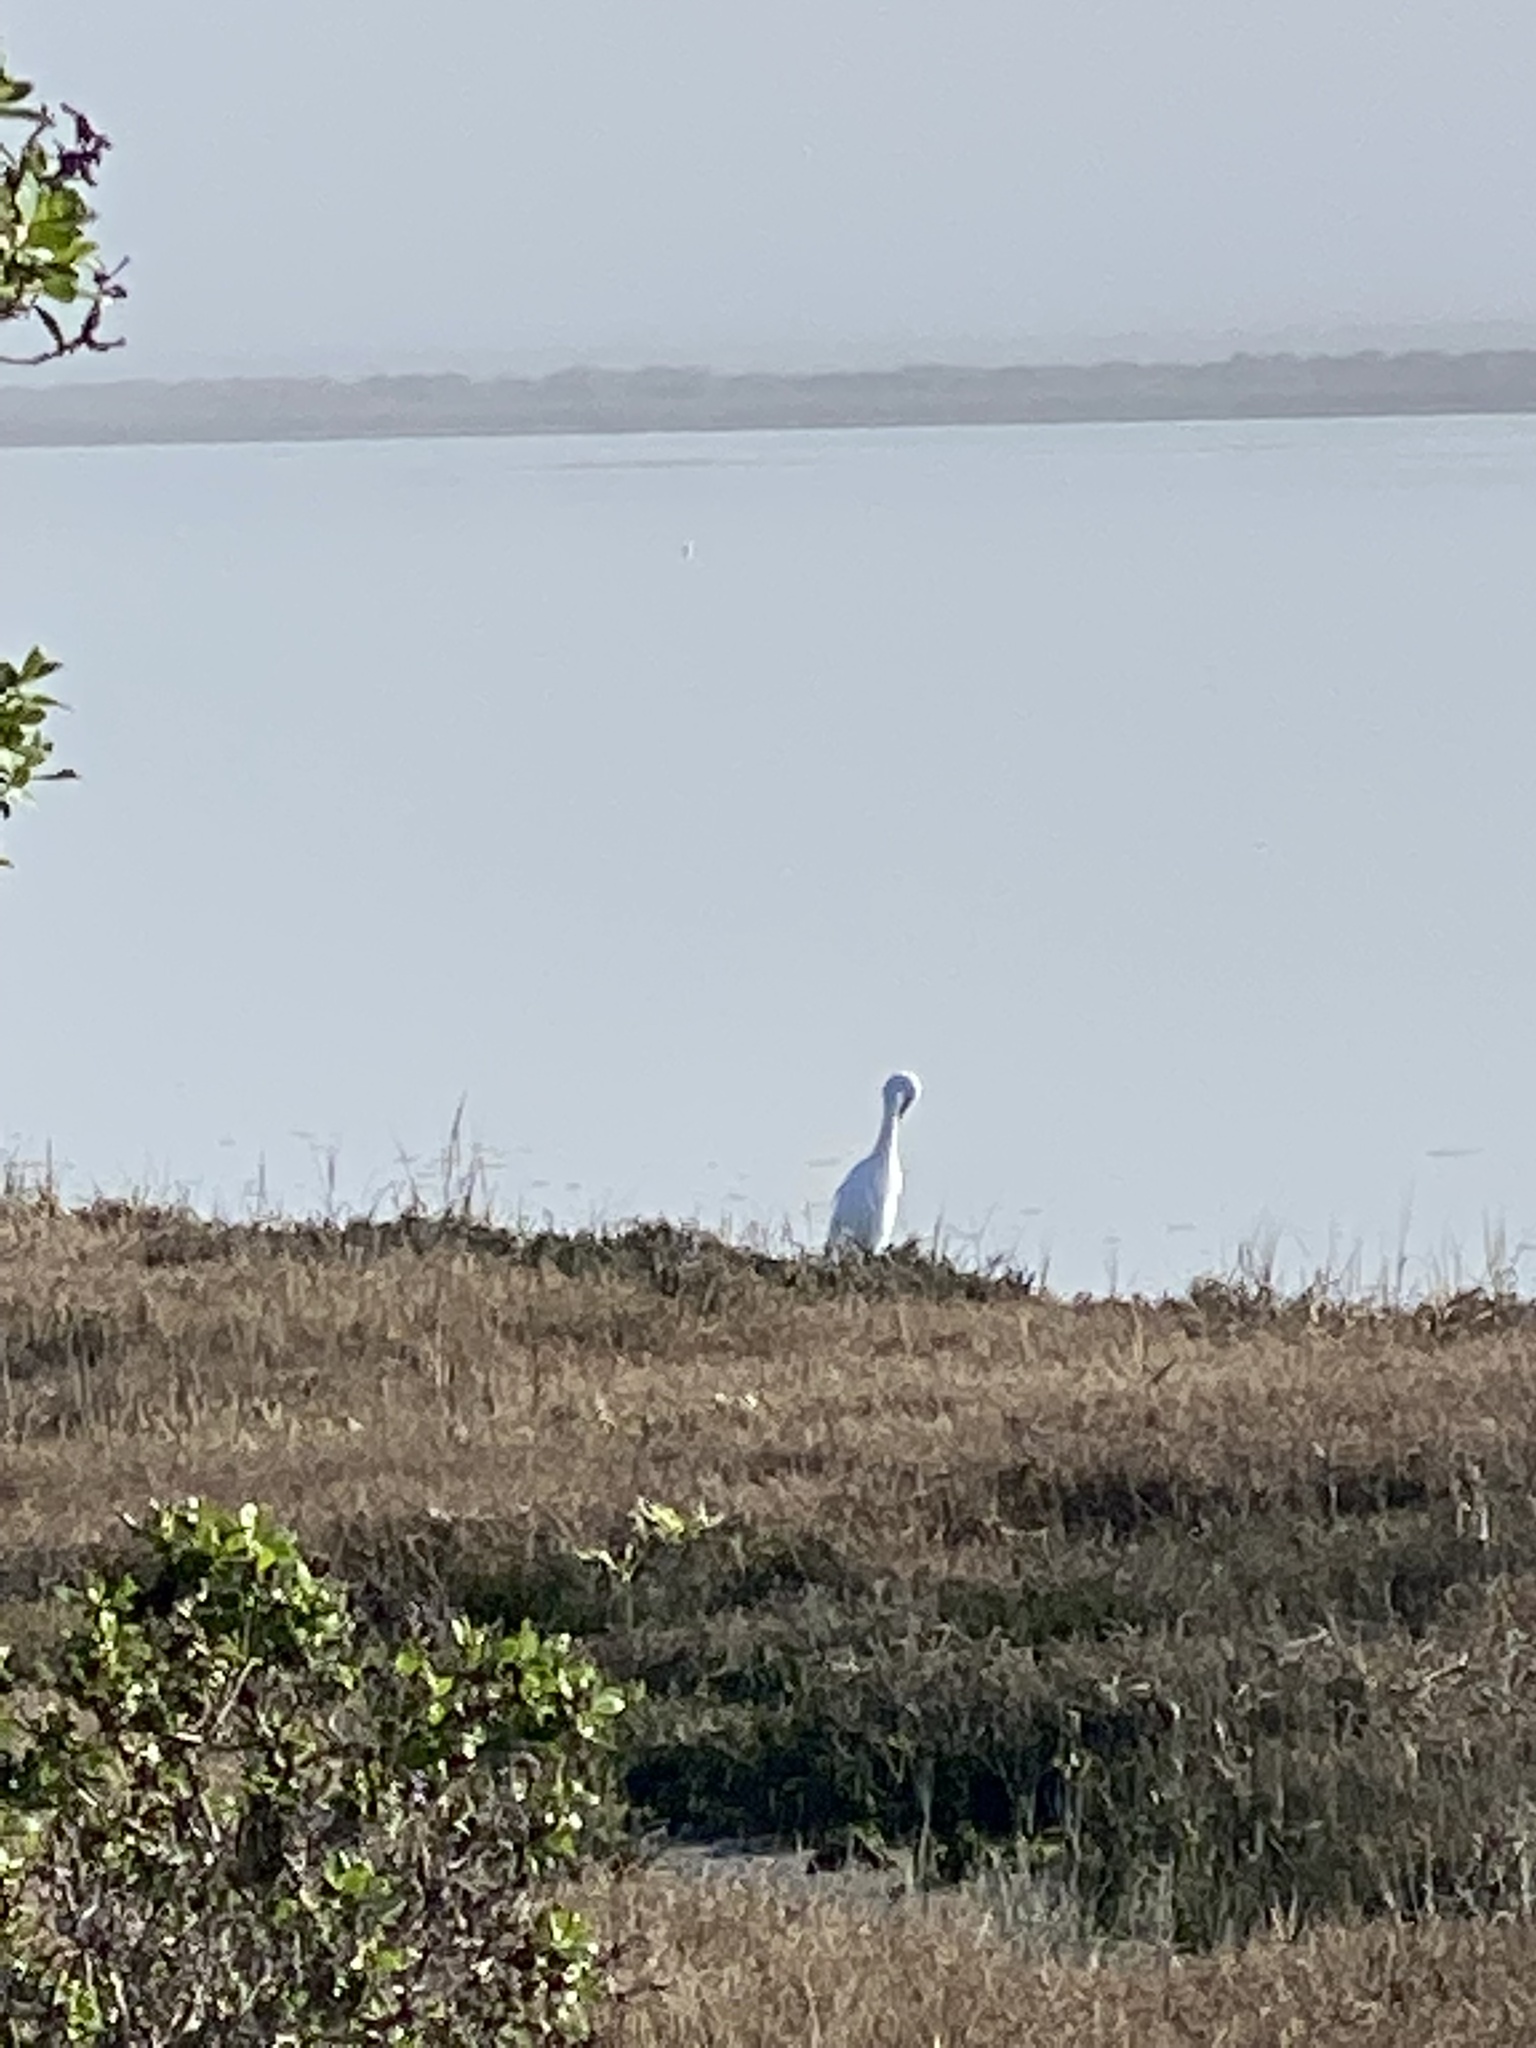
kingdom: Animalia
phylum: Chordata
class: Aves
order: Pelecaniformes
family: Ardeidae
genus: Ardea
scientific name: Ardea alba
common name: Great egret
